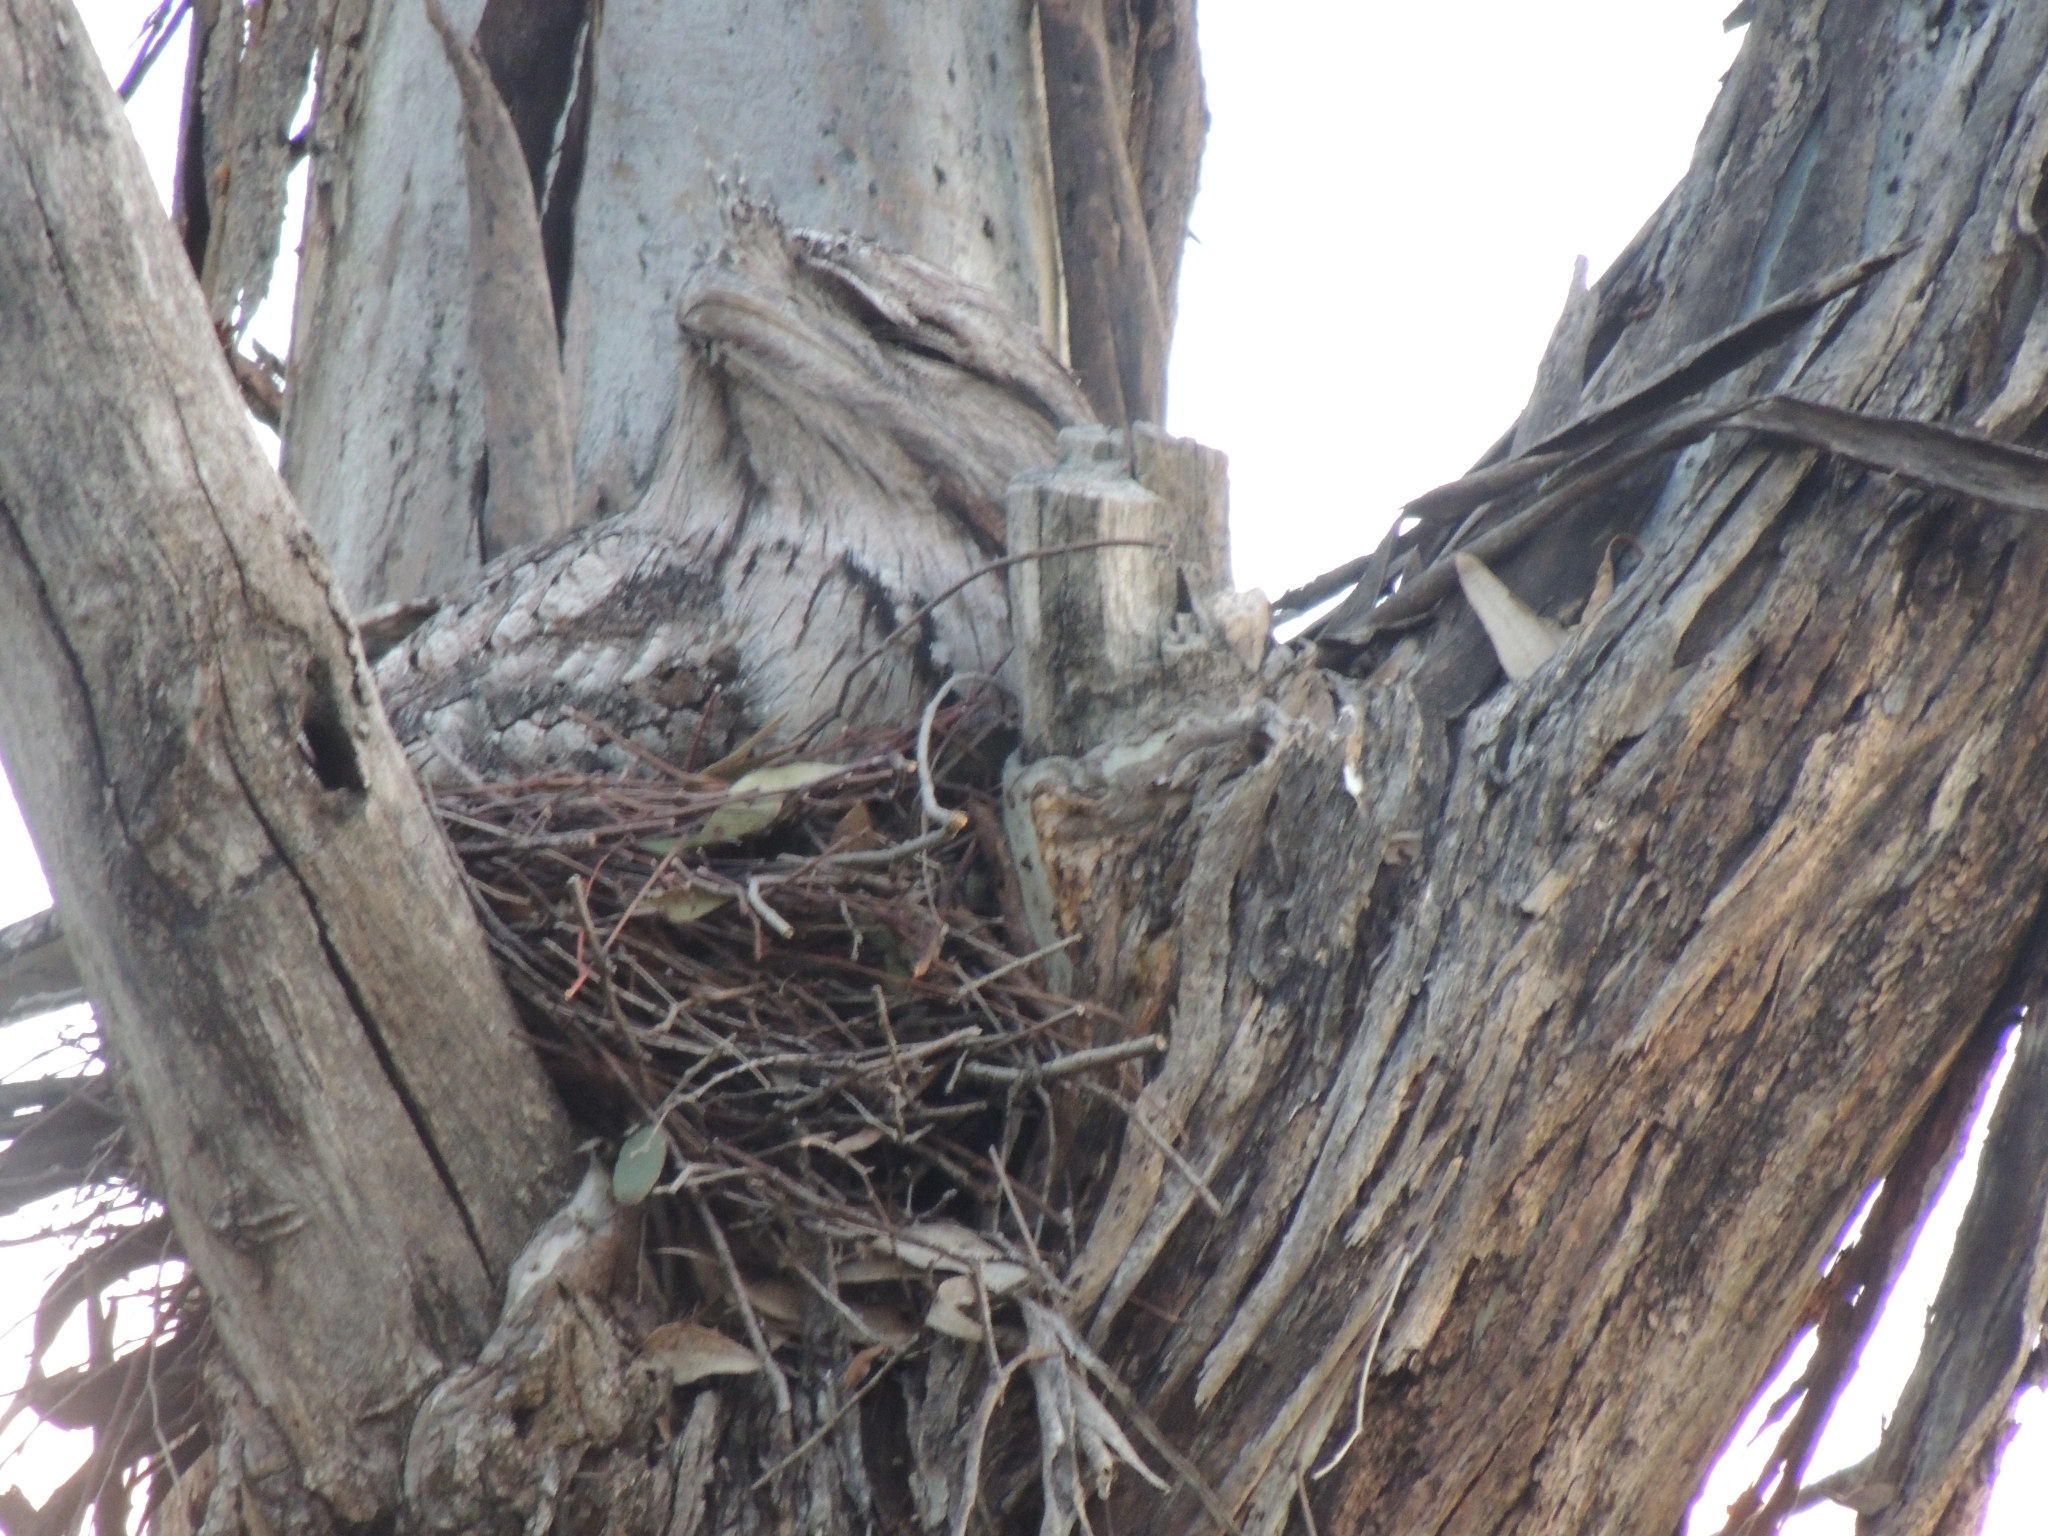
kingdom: Animalia
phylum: Chordata
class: Aves
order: Caprimulgiformes
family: Podargidae
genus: Podargus
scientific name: Podargus strigoides
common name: Tawny frogmouth
